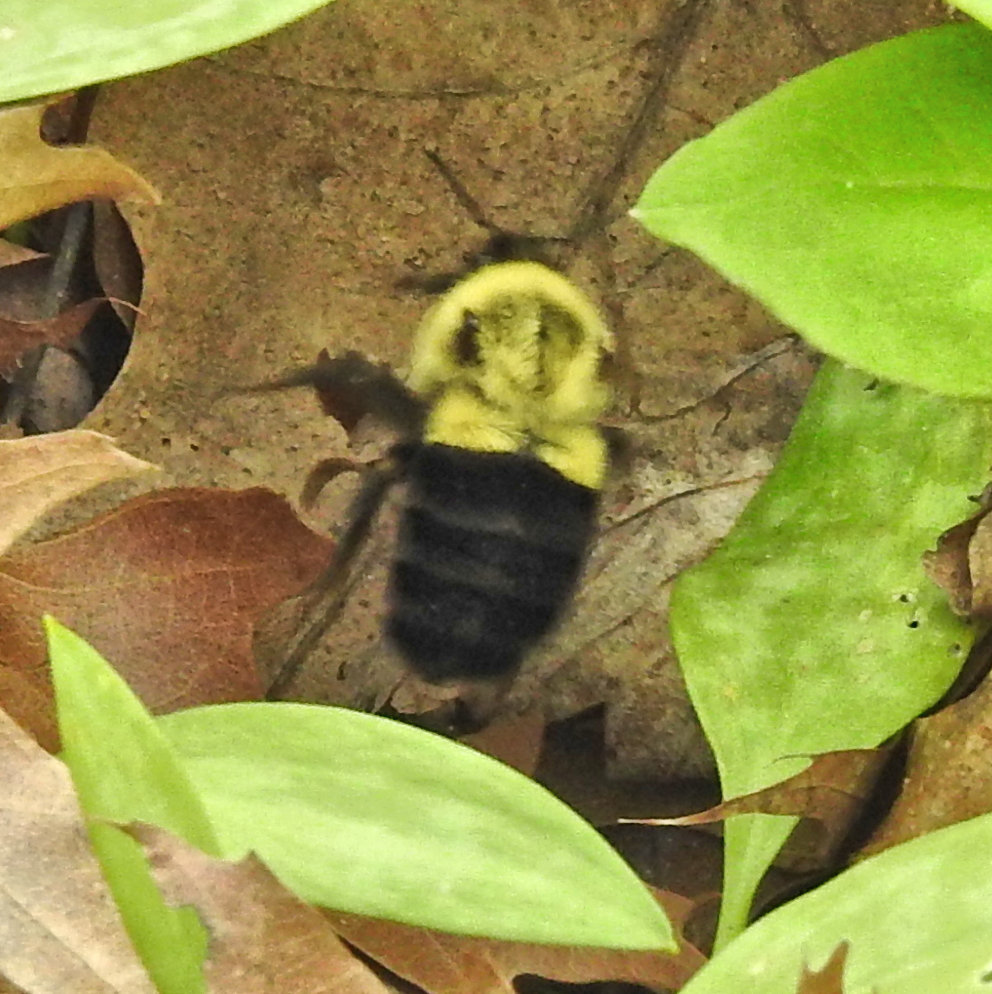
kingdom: Animalia
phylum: Arthropoda
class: Insecta
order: Hymenoptera
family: Apidae
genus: Bombus
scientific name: Bombus impatiens
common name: Common eastern bumble bee
